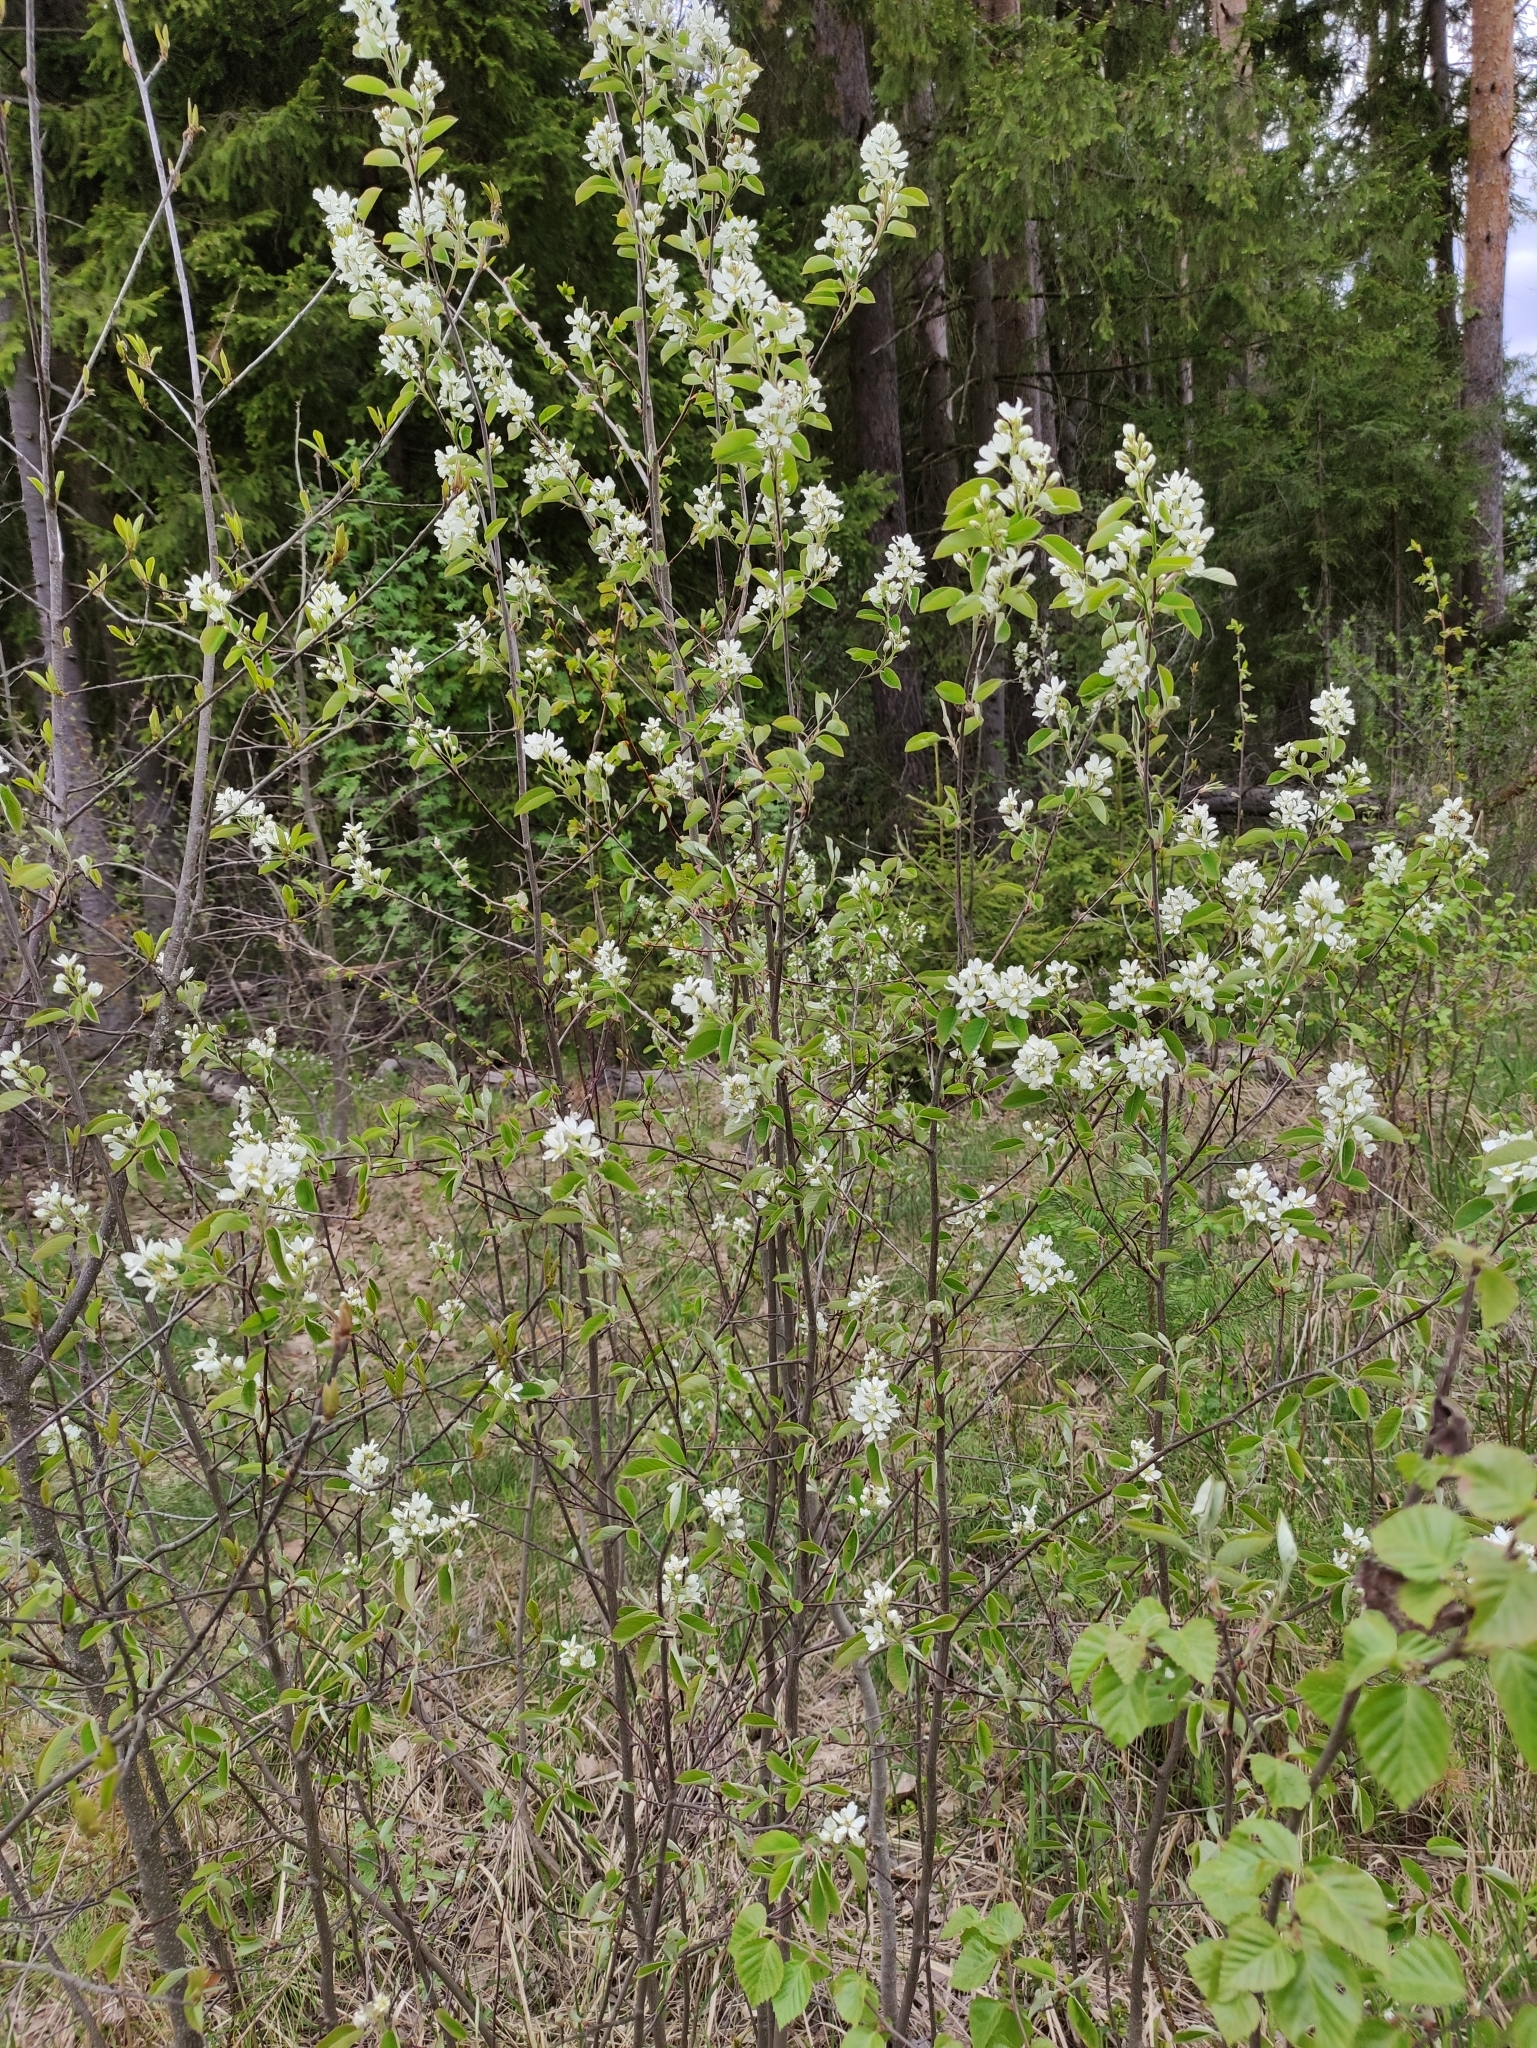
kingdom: Plantae
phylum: Tracheophyta
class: Magnoliopsida
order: Rosales
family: Rosaceae
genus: Amelanchier
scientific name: Amelanchier
